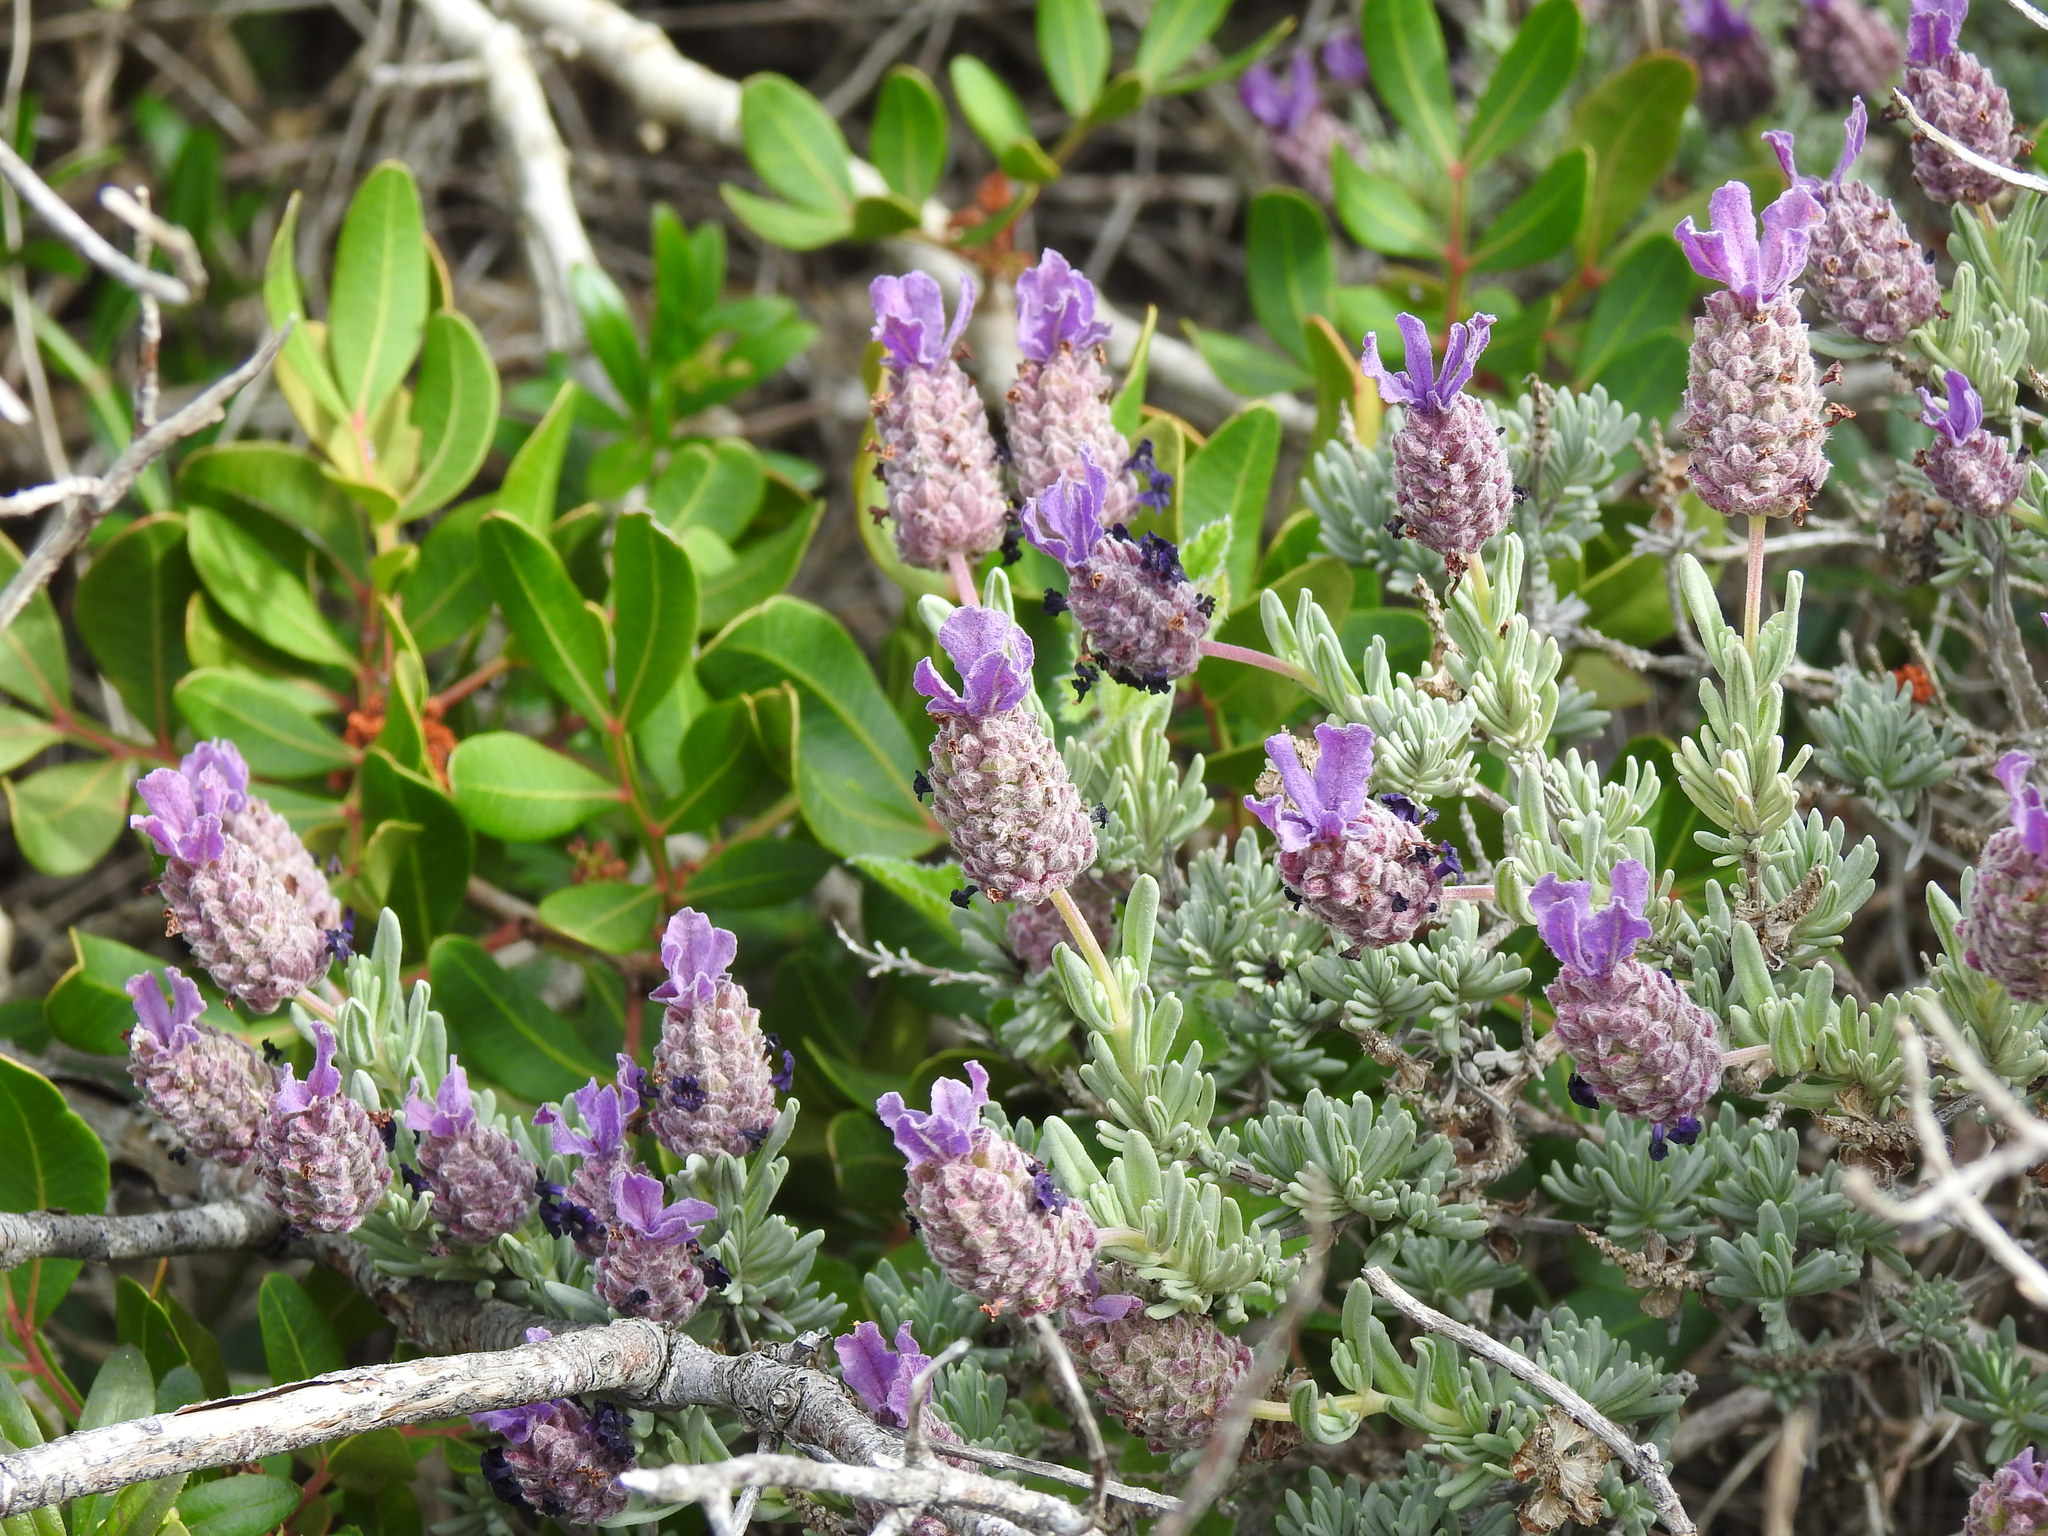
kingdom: Plantae
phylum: Tracheophyta
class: Magnoliopsida
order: Lamiales
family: Lamiaceae
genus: Lavandula
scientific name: Lavandula stoechas
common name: French lavender
